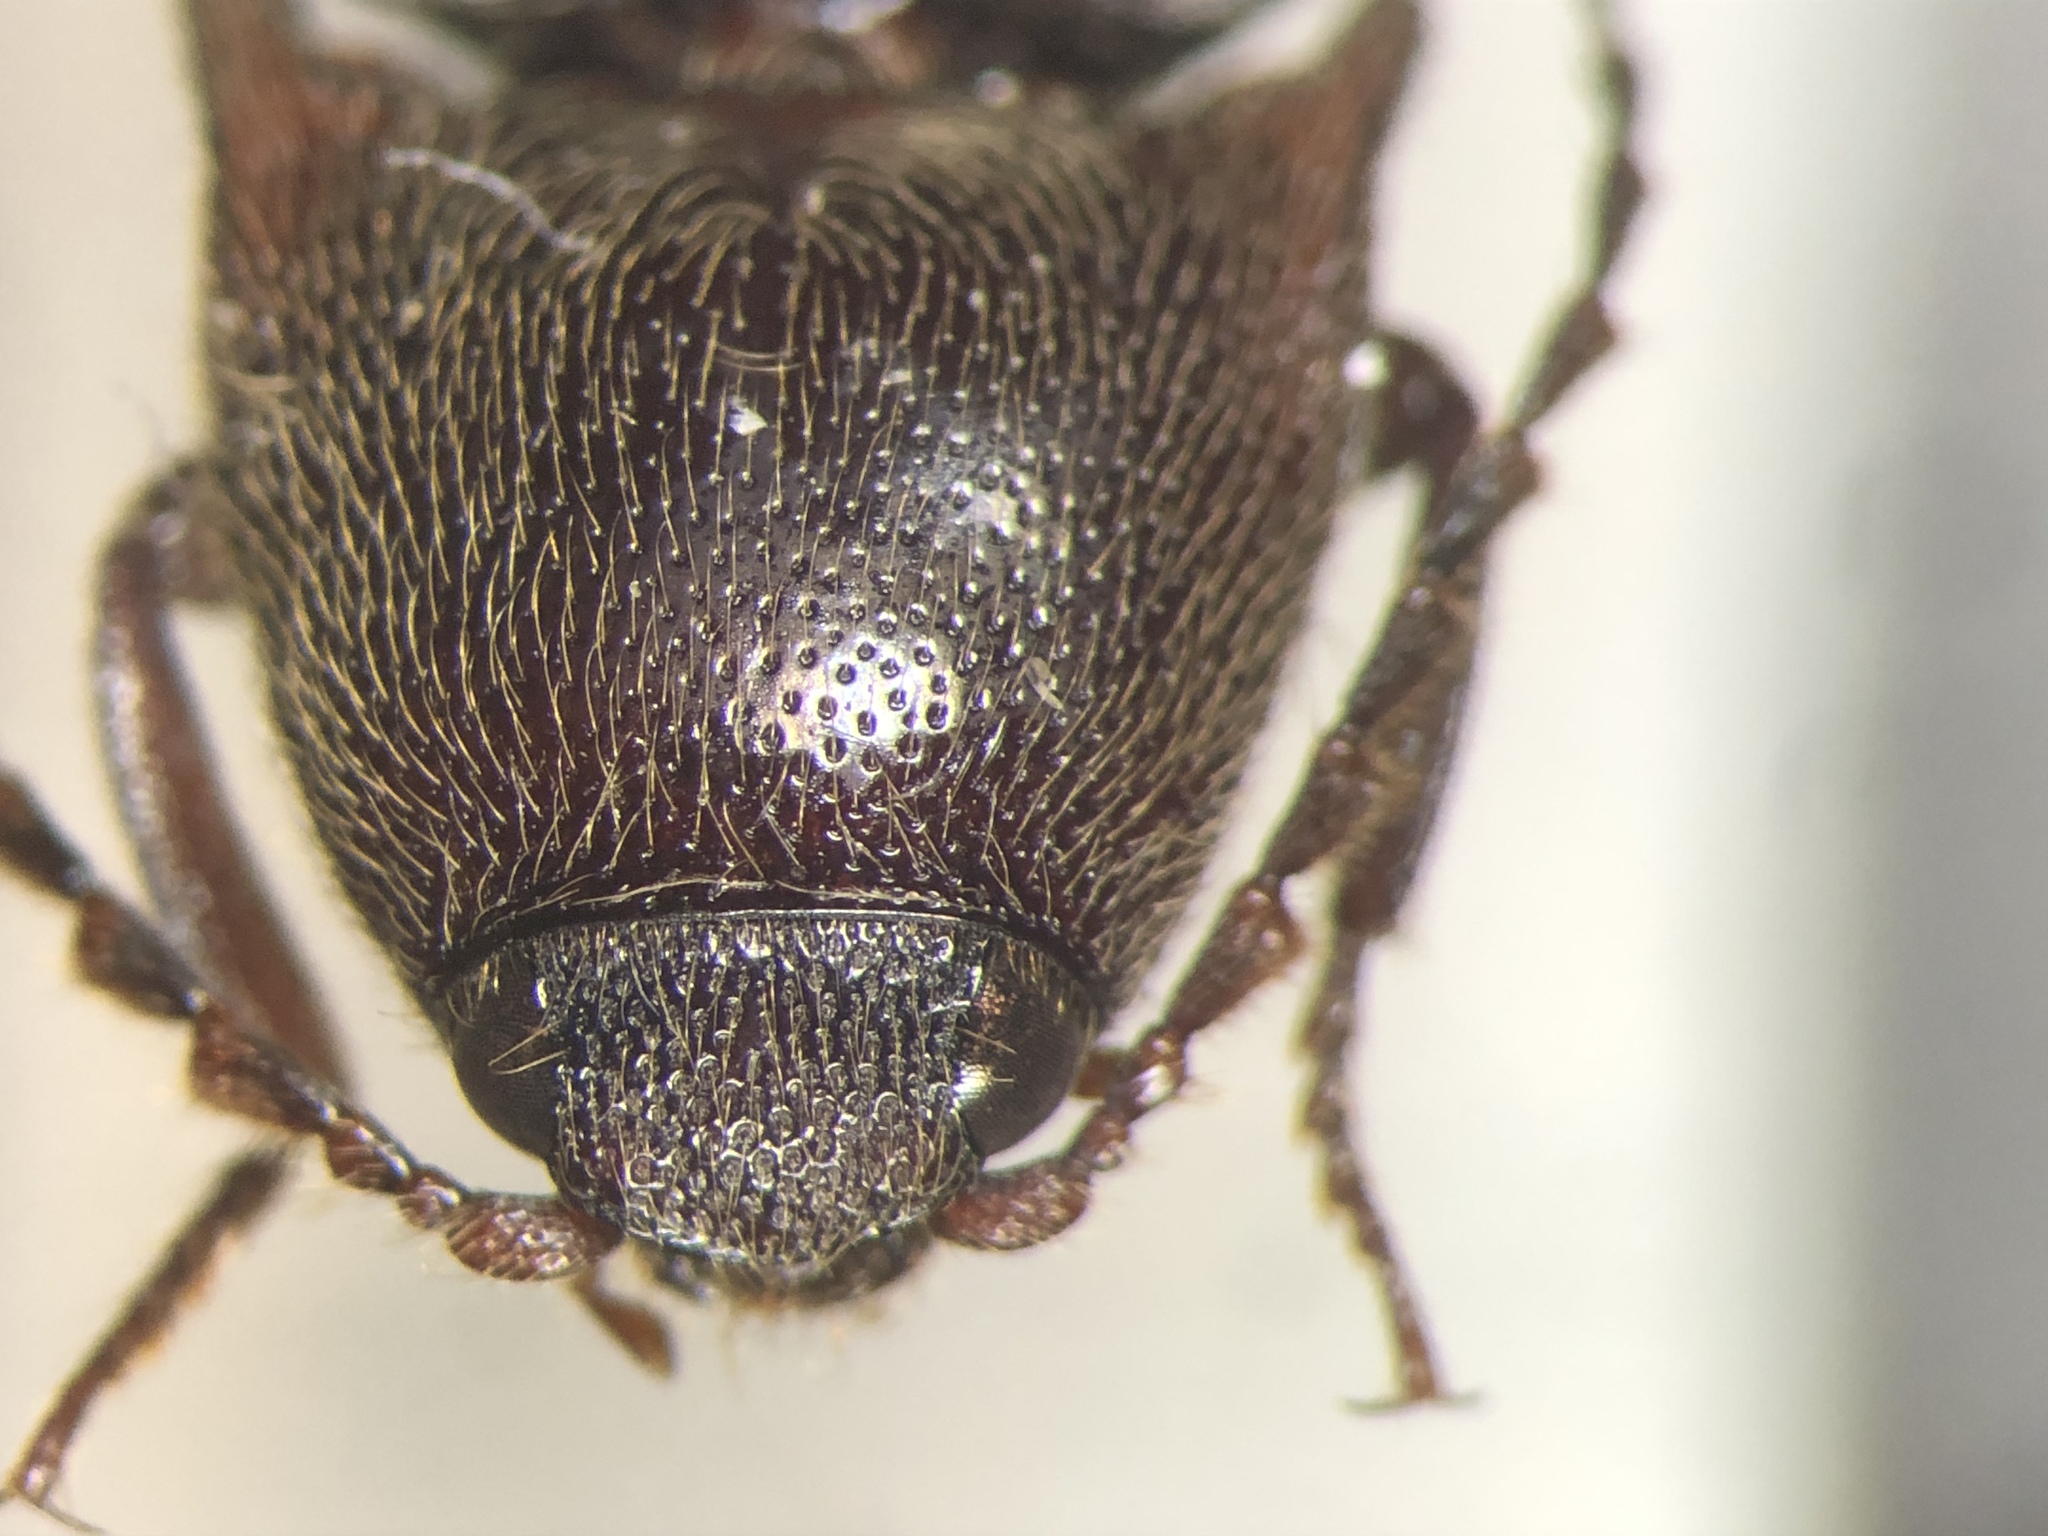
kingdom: Animalia
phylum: Arthropoda
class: Insecta
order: Coleoptera
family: Elateridae
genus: Melanotus
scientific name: Melanotus similis
